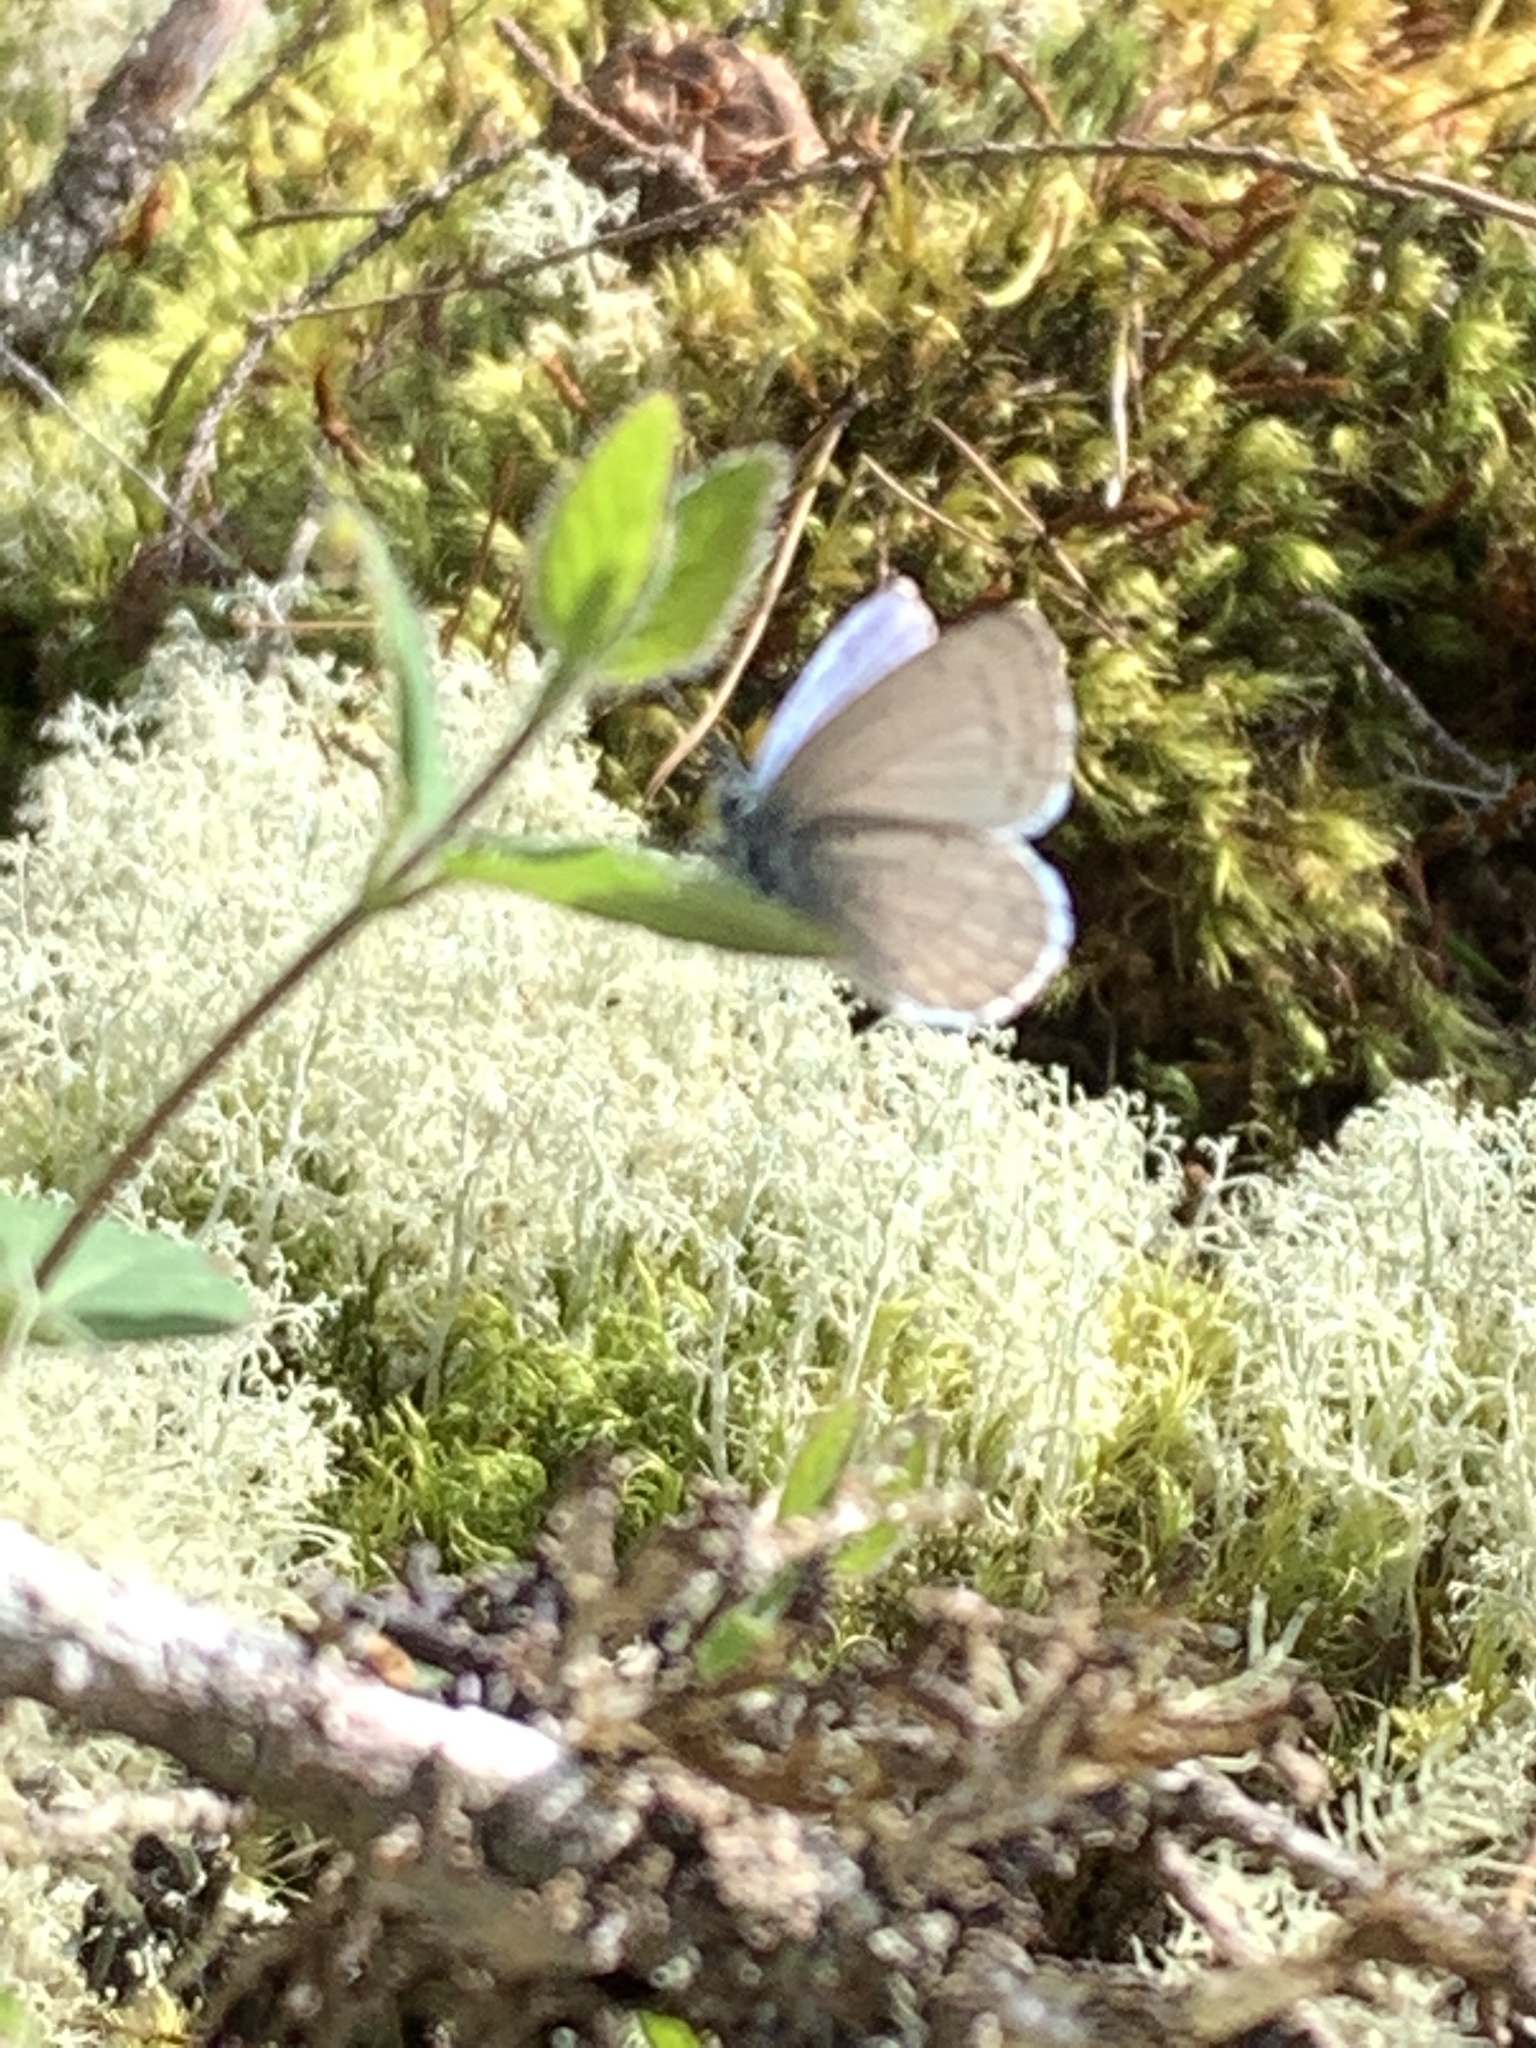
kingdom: Animalia
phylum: Arthropoda
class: Insecta
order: Lepidoptera
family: Lycaenidae
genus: Celastrina
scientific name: Celastrina ladon
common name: Spring azure
